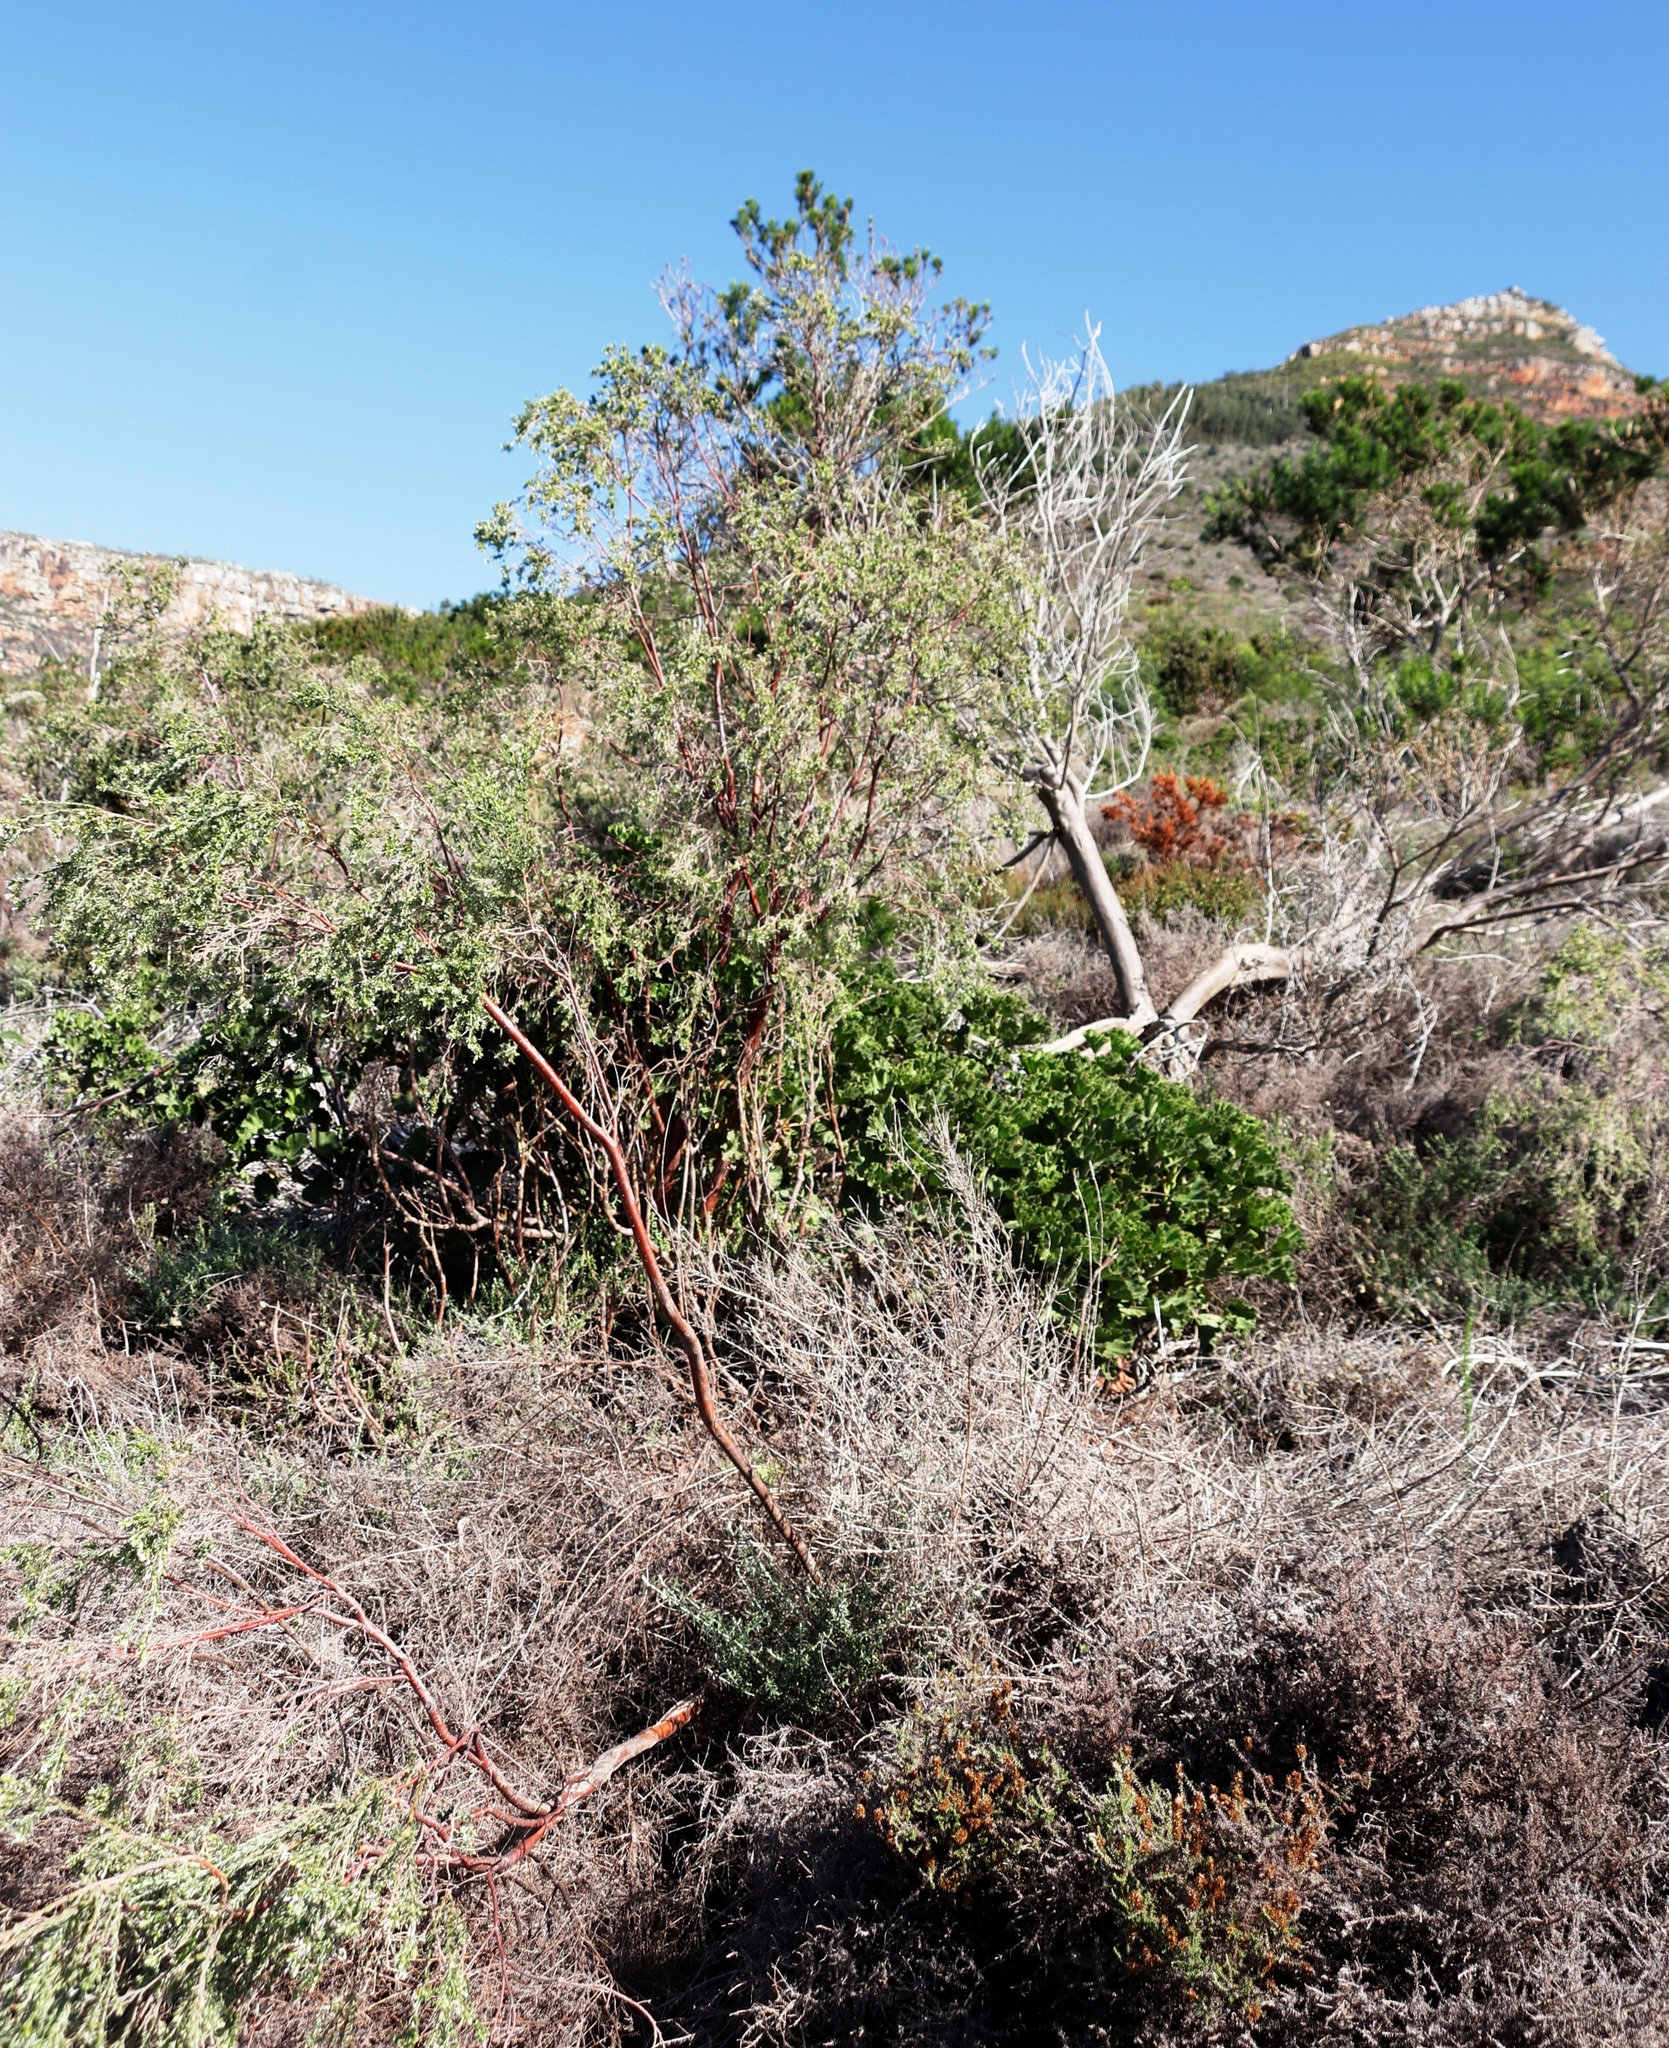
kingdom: Plantae
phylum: Tracheophyta
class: Magnoliopsida
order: Malvales
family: Thymelaeaceae
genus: Gnidia
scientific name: Gnidia sericea
